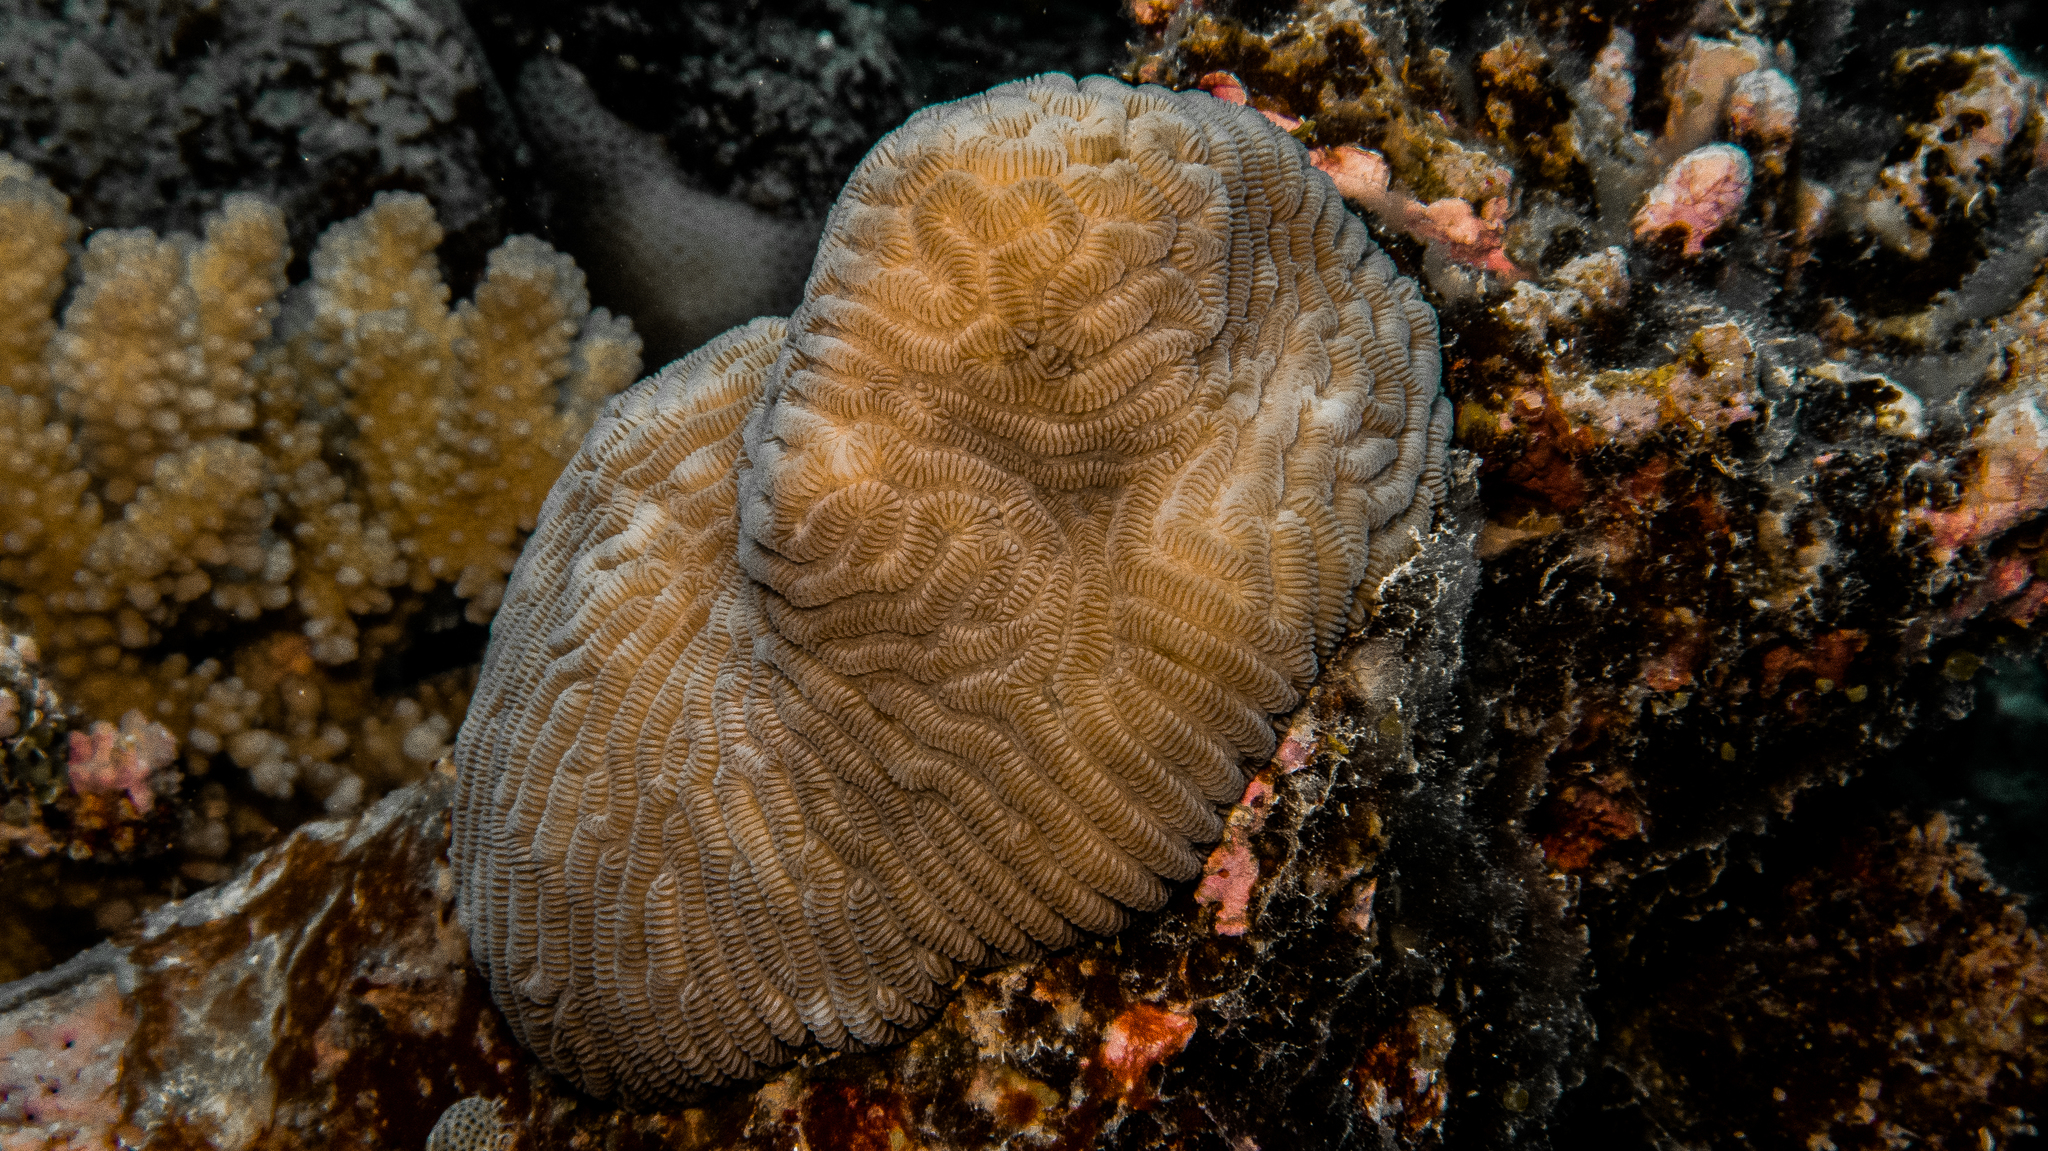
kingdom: Animalia
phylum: Cnidaria
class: Anthozoa
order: Scleractinia
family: Merulinidae
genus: Leptoria
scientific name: Leptoria phrygia
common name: Least valley coral
